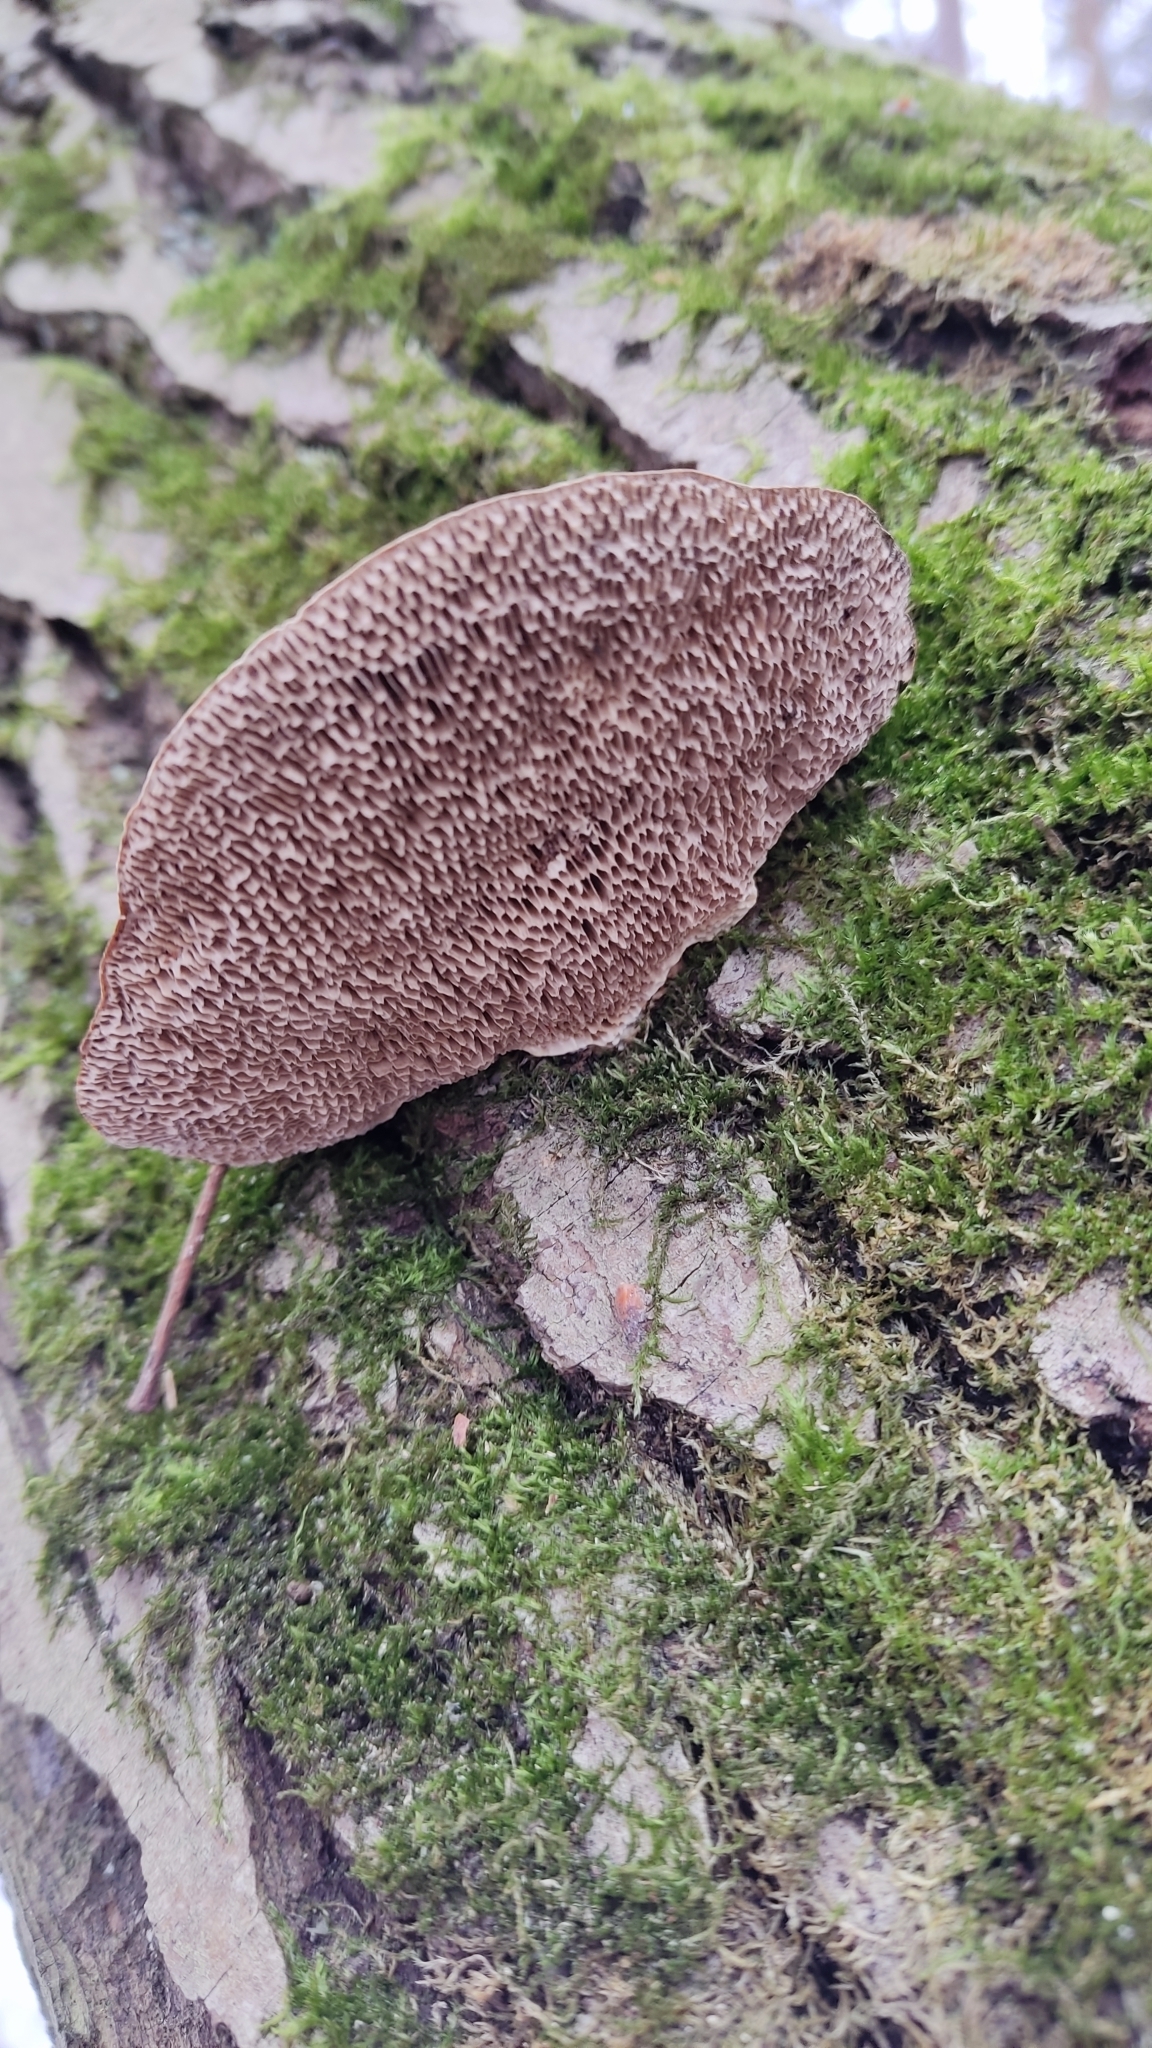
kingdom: Fungi
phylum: Basidiomycota
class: Agaricomycetes
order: Polyporales
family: Polyporaceae
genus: Daedaleopsis
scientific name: Daedaleopsis confragosa
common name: Blushing bracket
